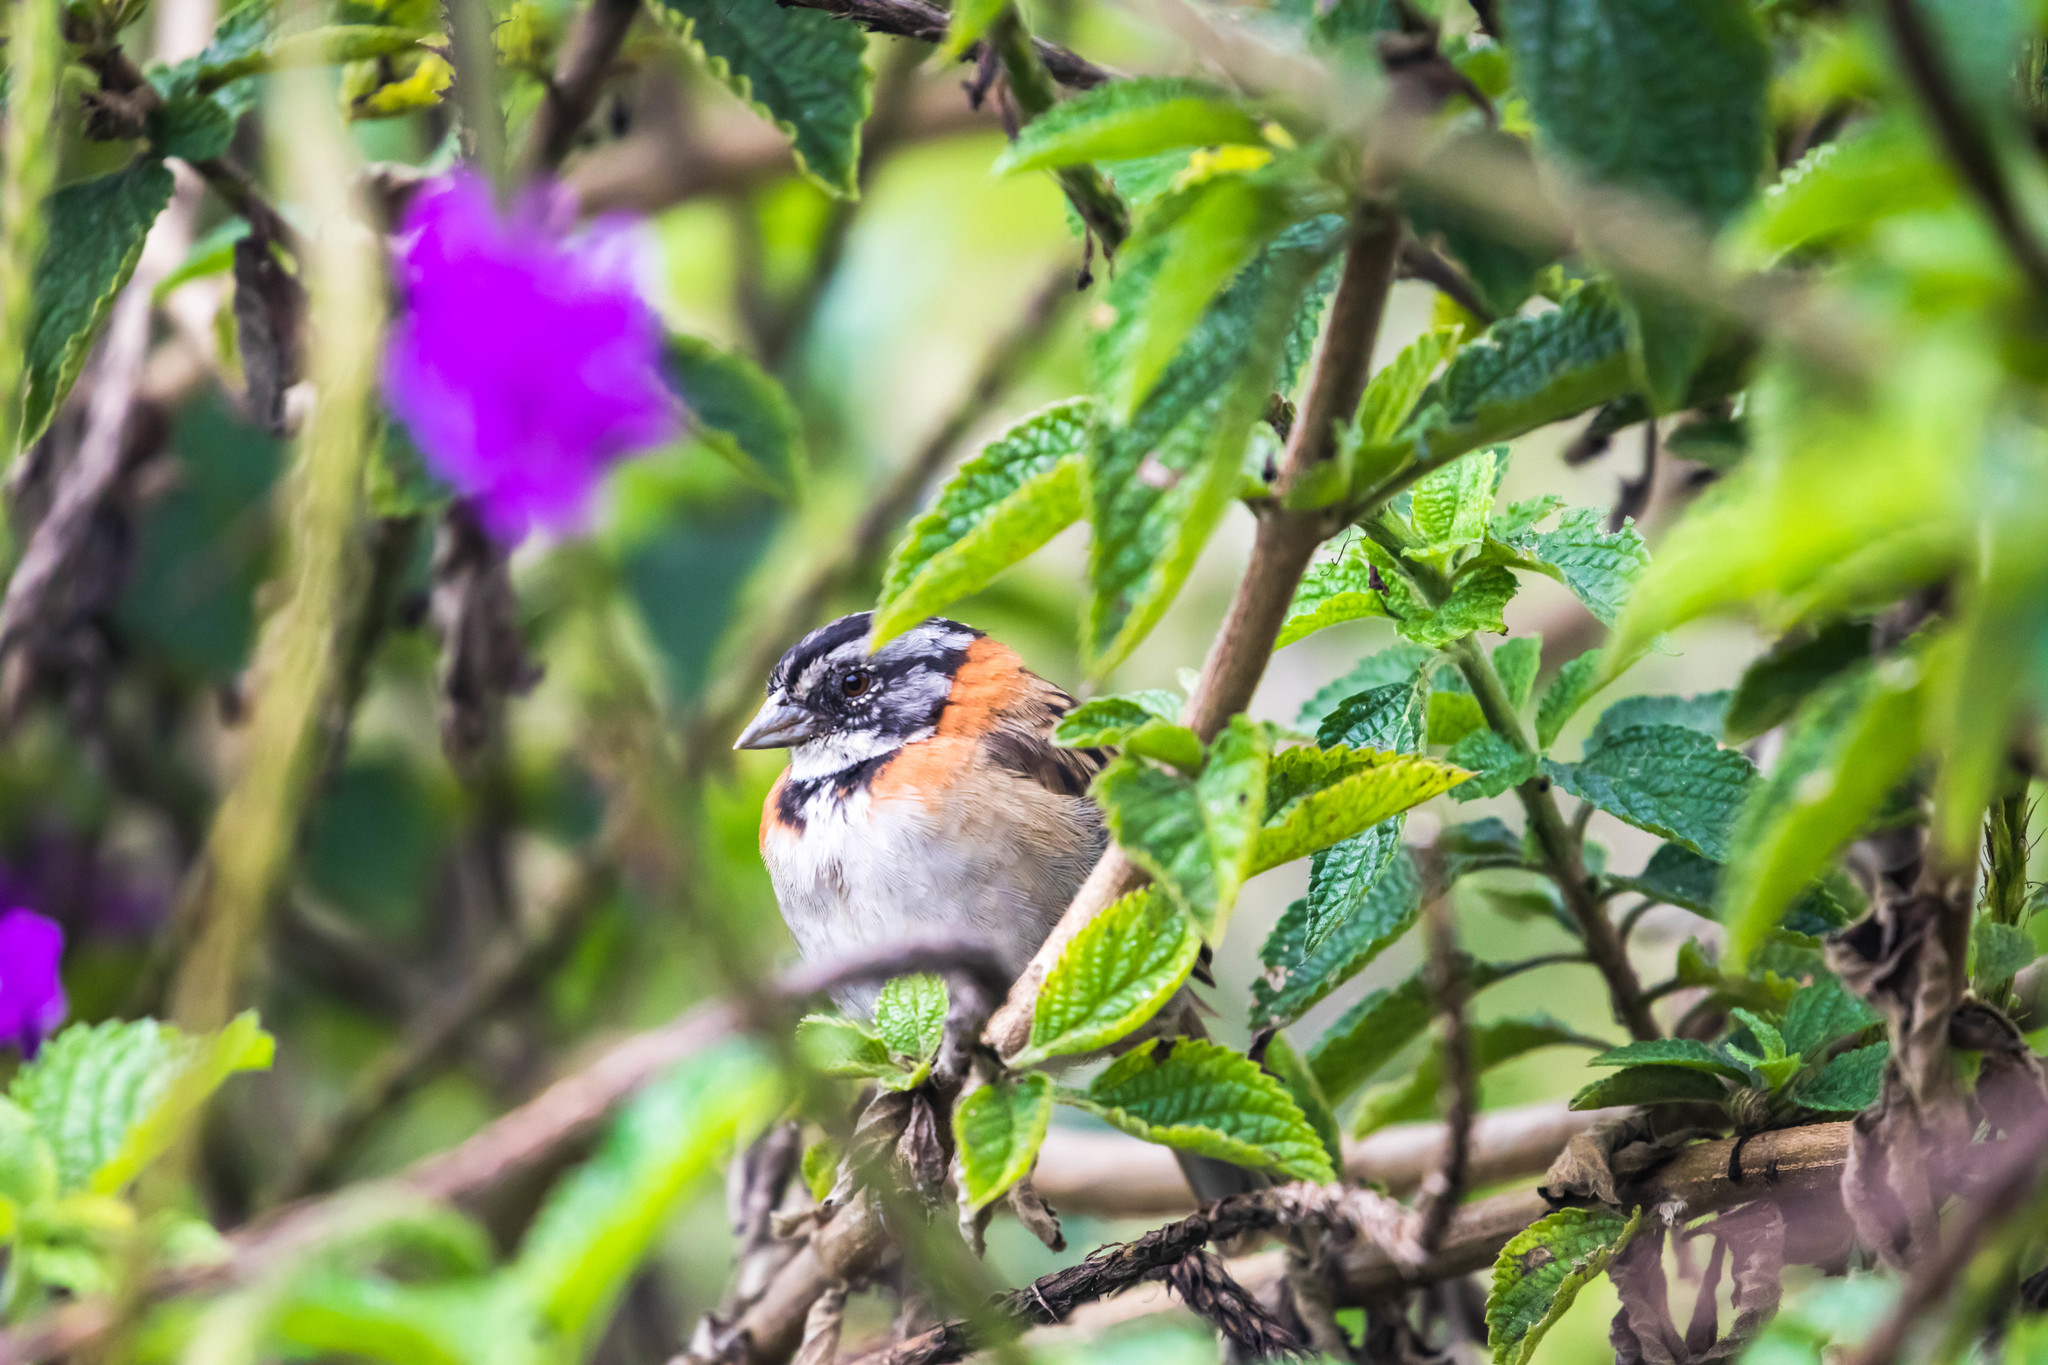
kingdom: Animalia
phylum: Chordata
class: Aves
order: Passeriformes
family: Passerellidae
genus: Zonotrichia
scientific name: Zonotrichia capensis
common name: Rufous-collared sparrow
